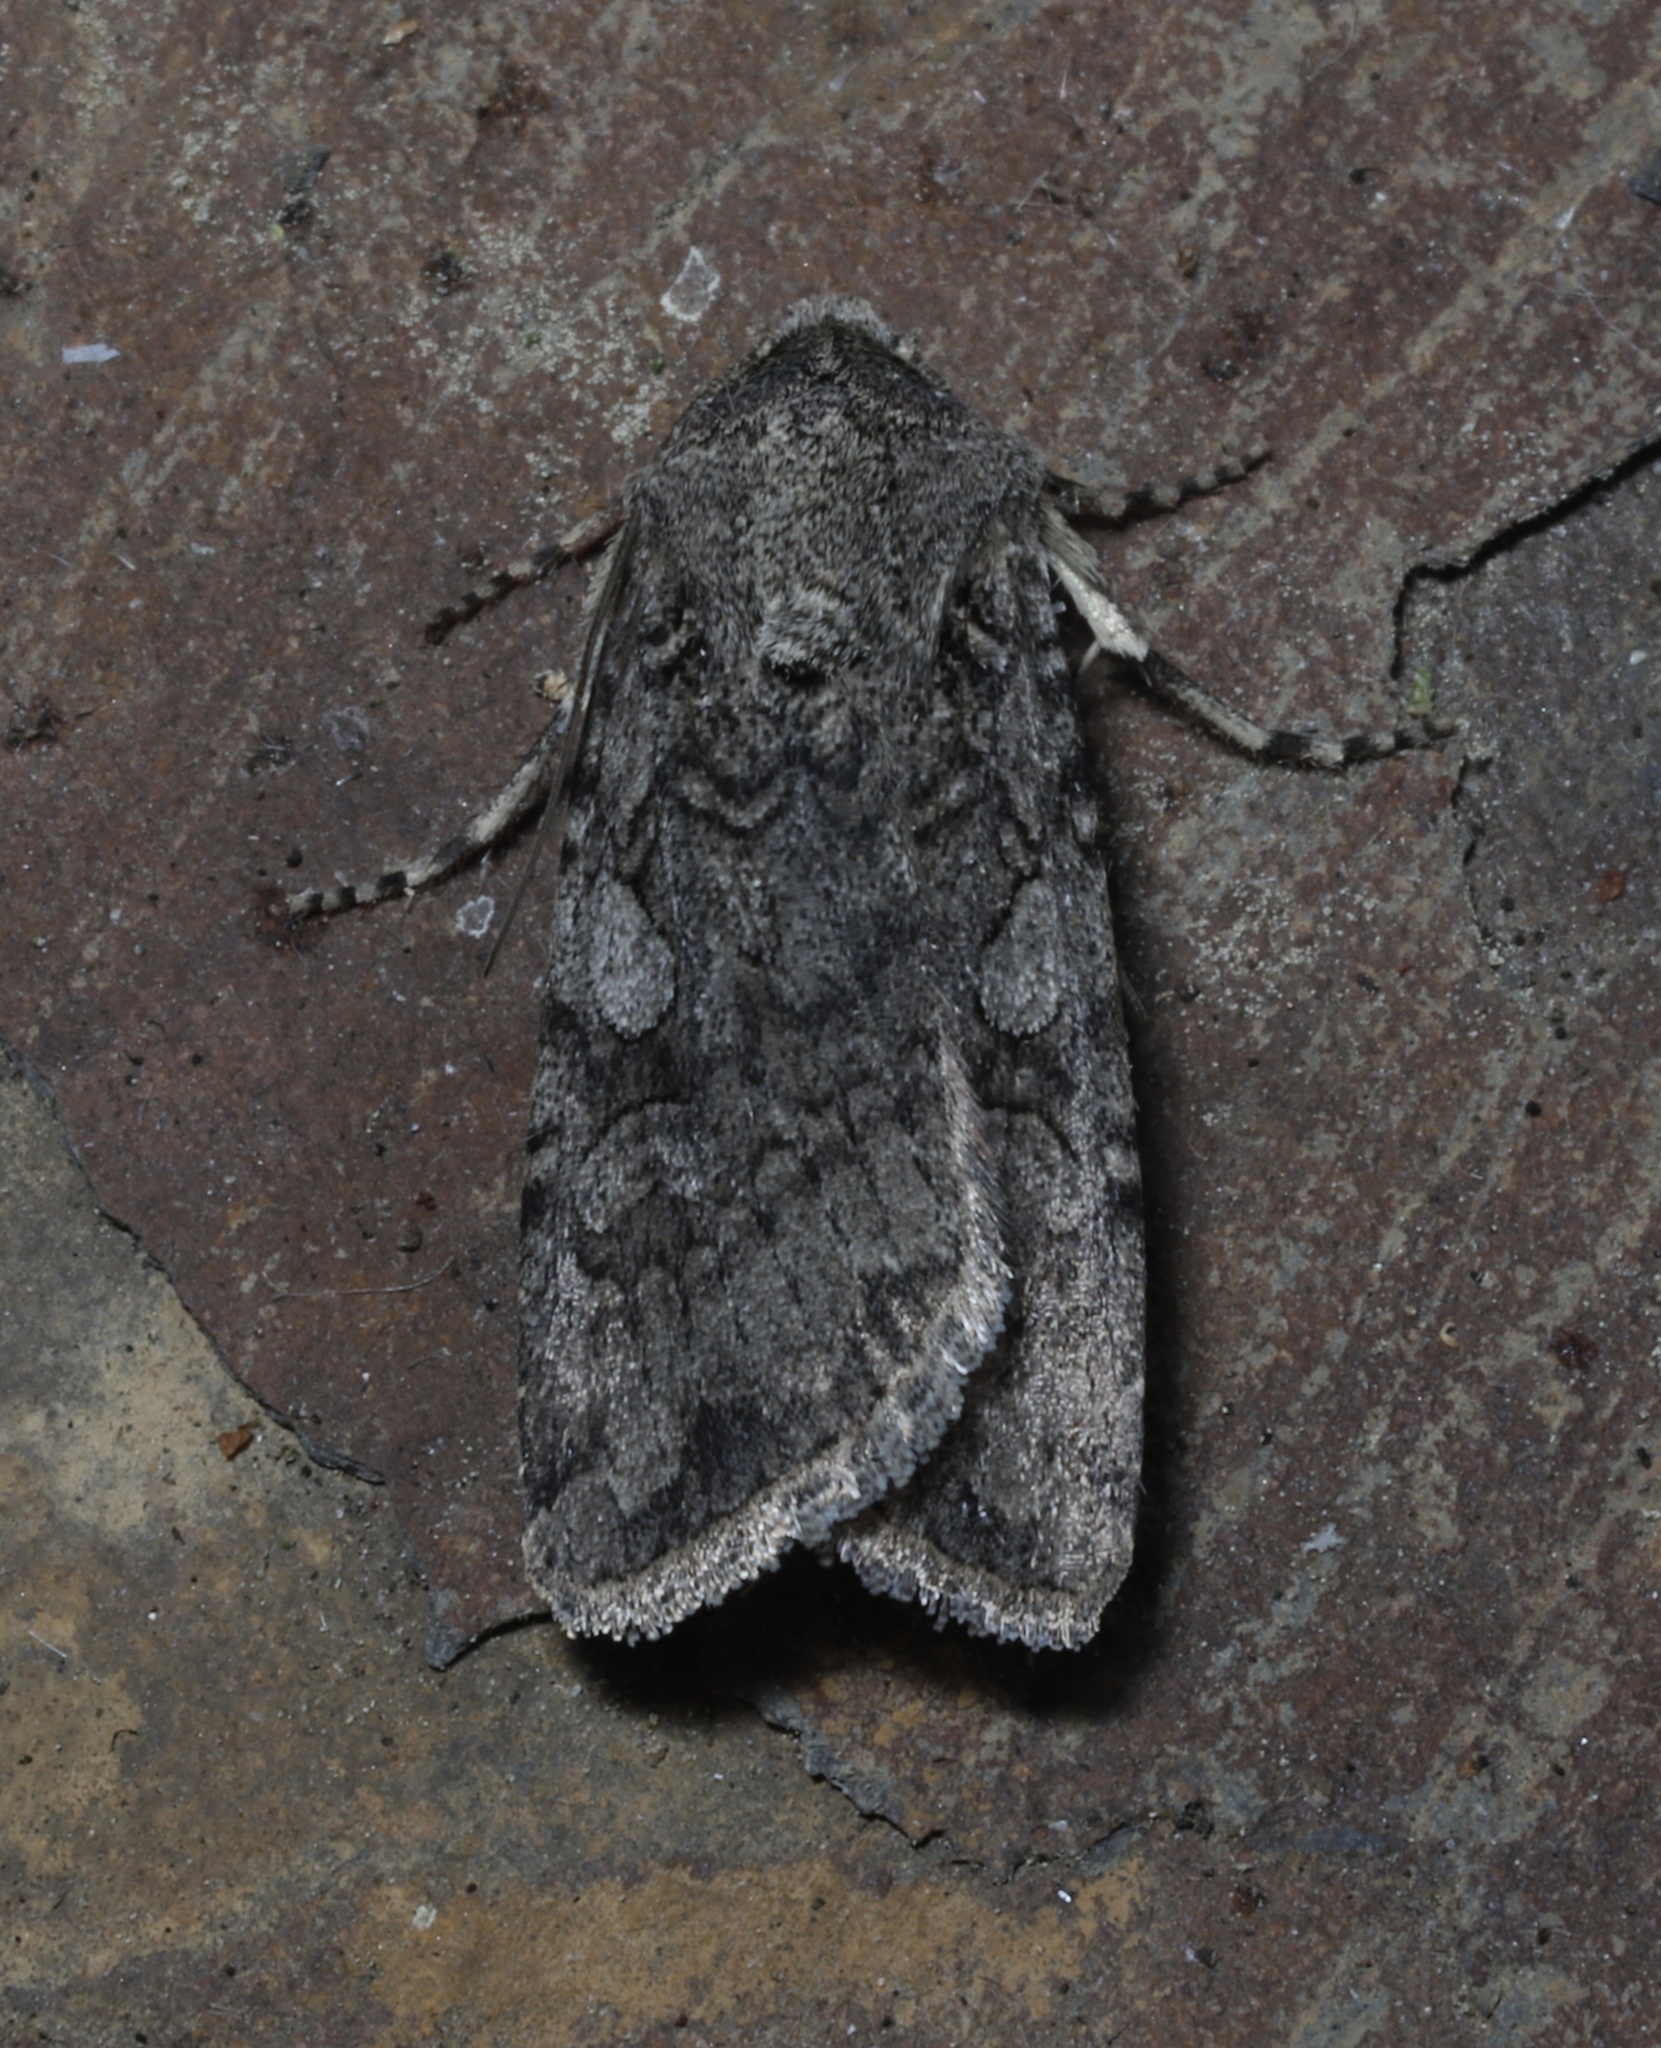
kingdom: Animalia
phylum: Arthropoda
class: Insecta
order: Lepidoptera
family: Noctuidae
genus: Euxoa
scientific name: Euxoa messoria
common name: Darksided cutworm
